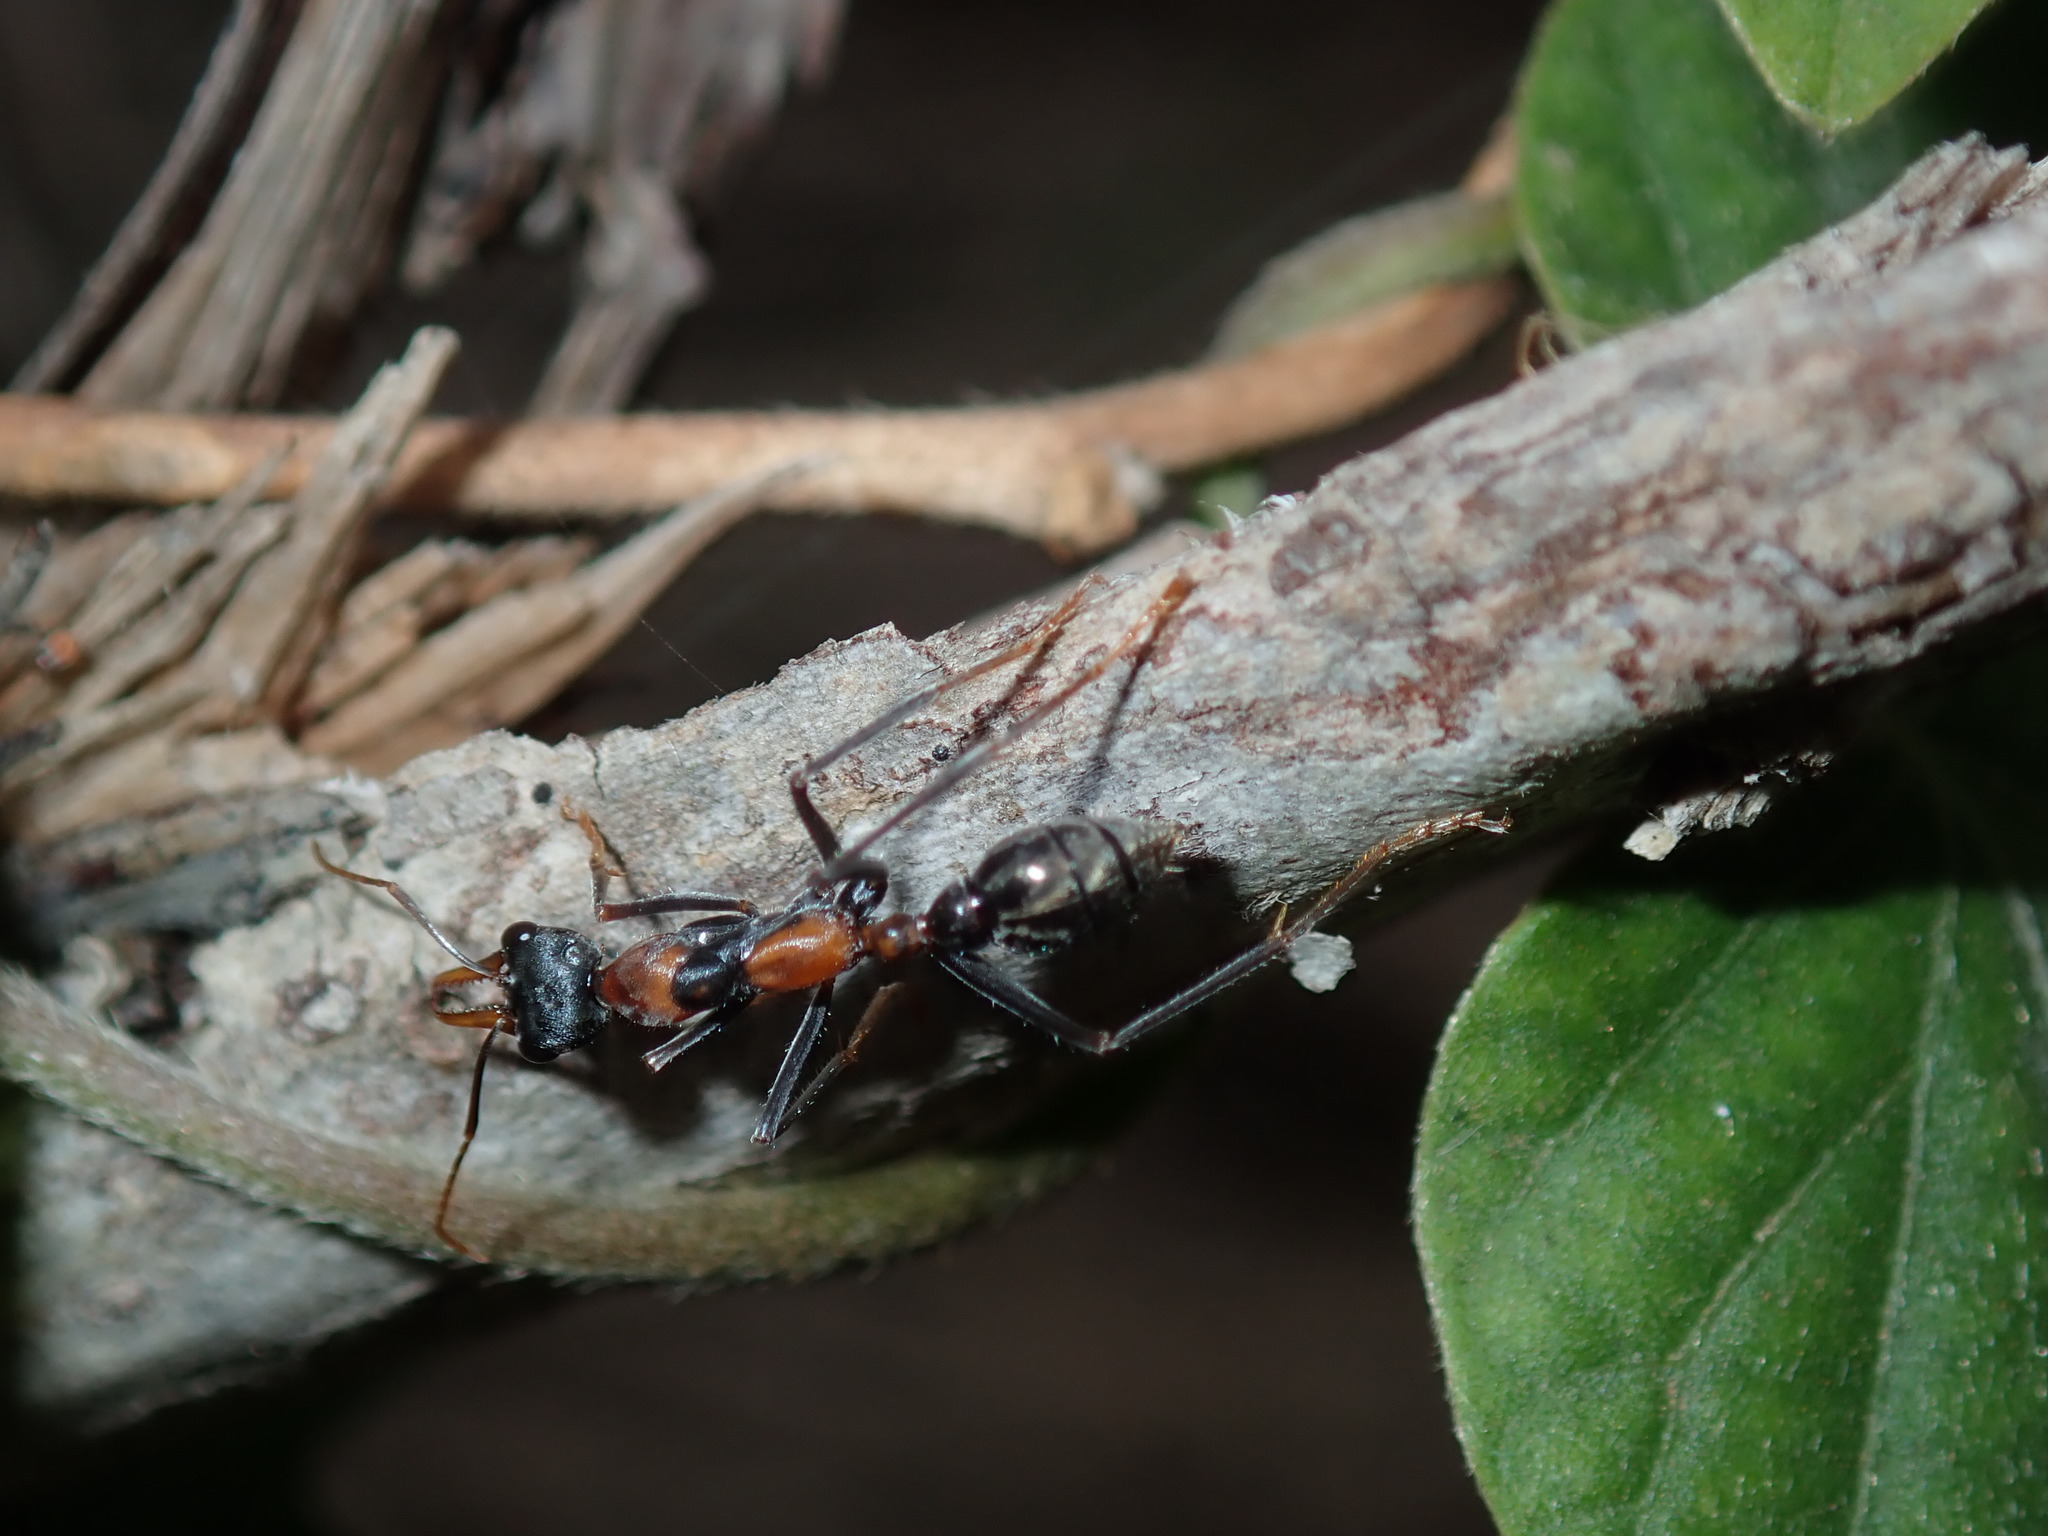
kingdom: Animalia
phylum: Arthropoda
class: Insecta
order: Hymenoptera
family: Formicidae
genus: Myrmecia
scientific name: Myrmecia nigrocincta
